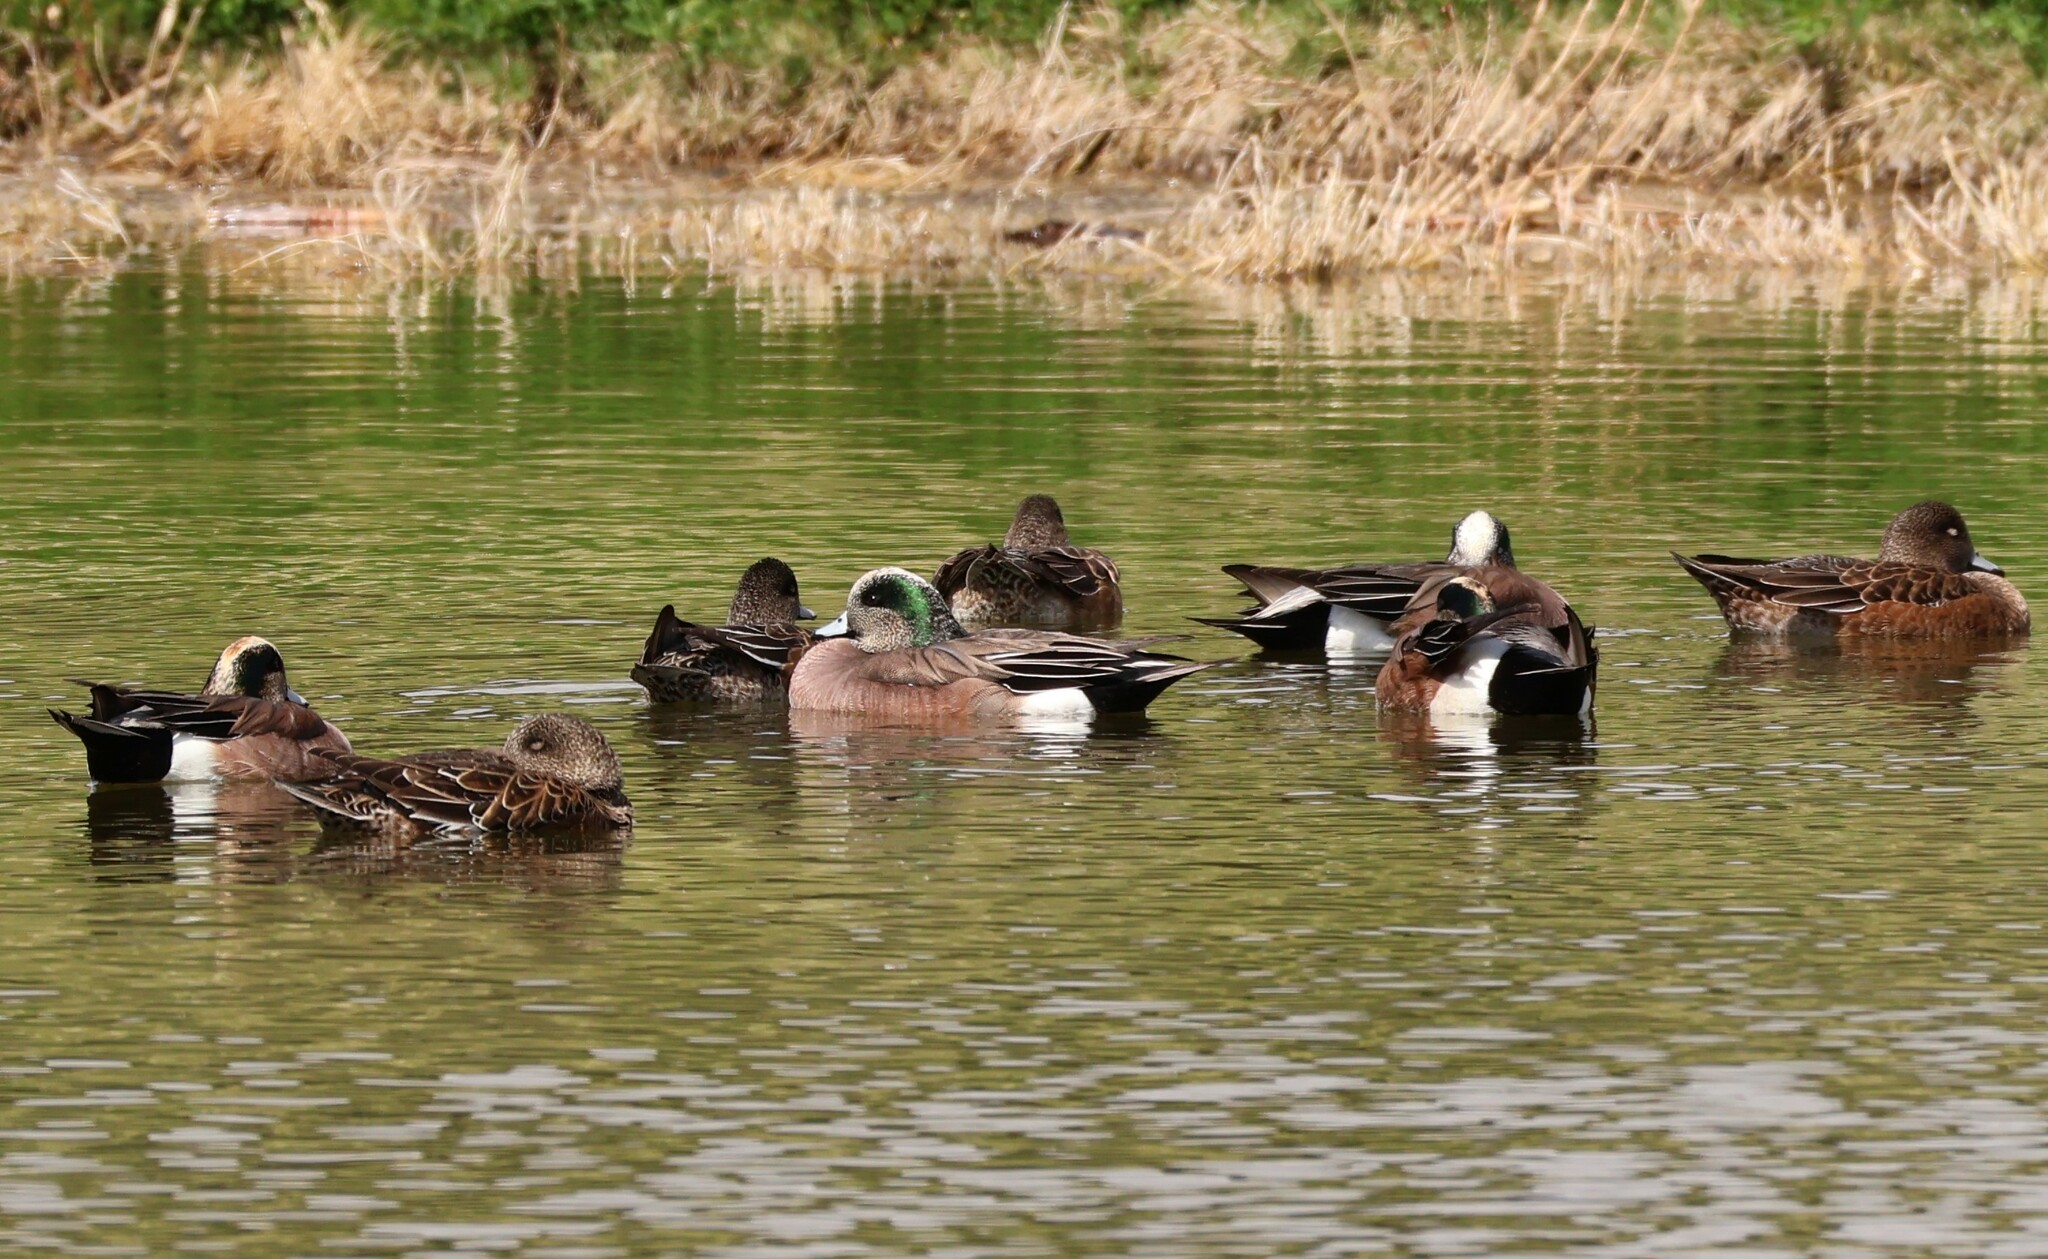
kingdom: Animalia
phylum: Chordata
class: Aves
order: Anseriformes
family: Anatidae
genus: Mareca
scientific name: Mareca americana
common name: American wigeon
